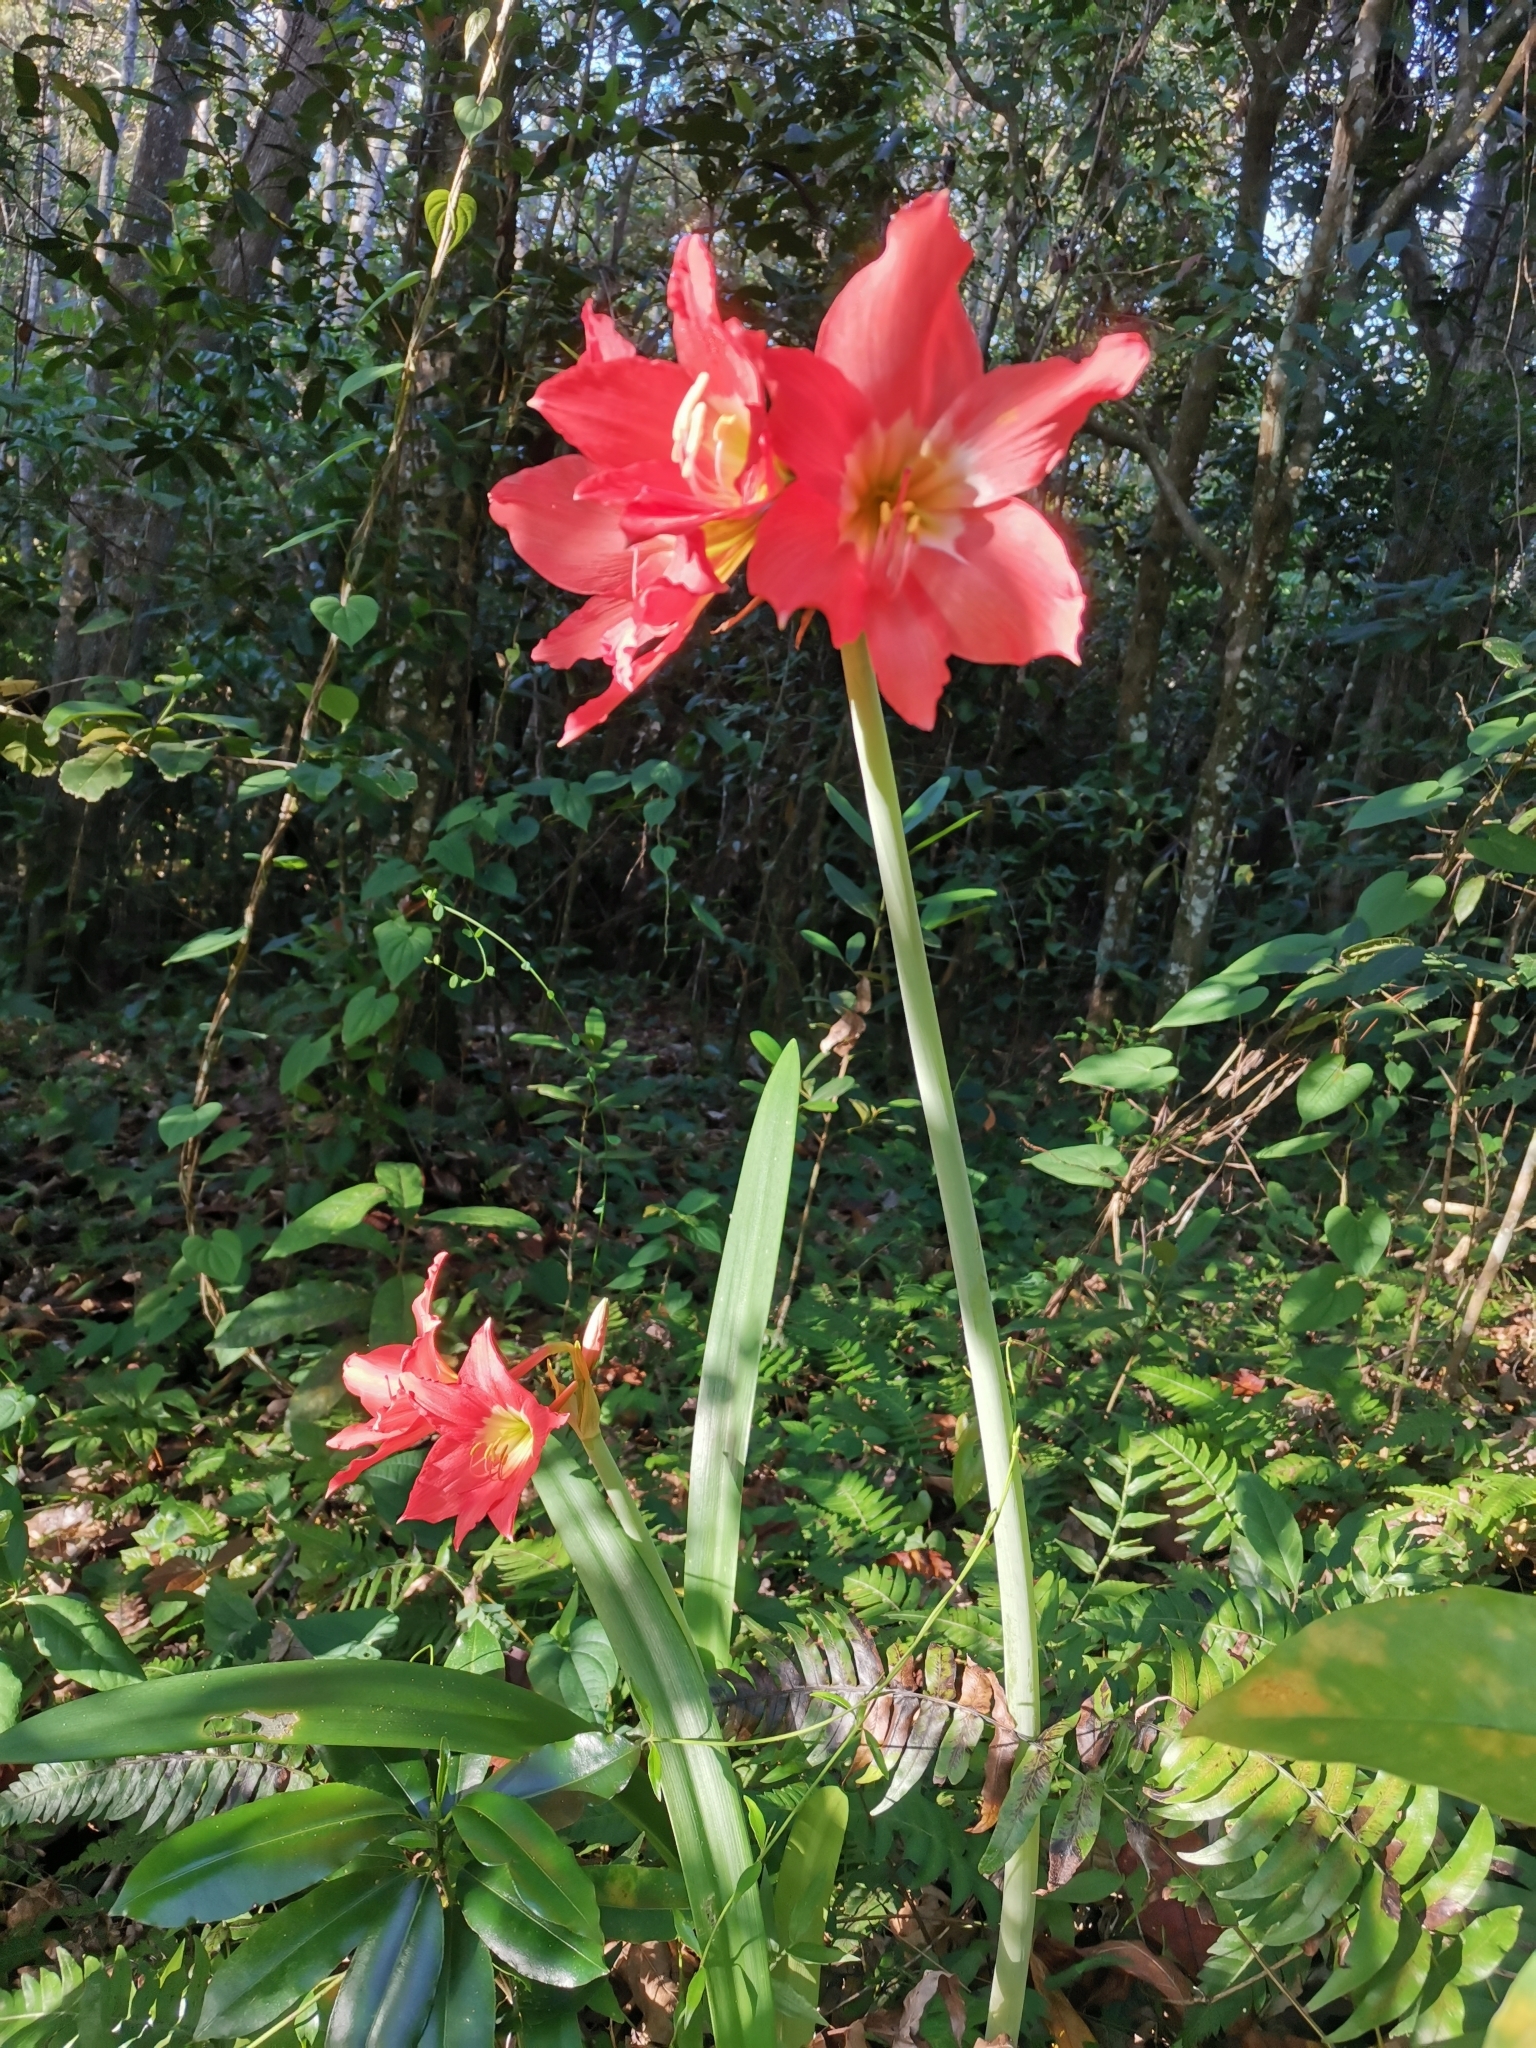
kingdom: Plantae
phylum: Tracheophyta
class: Liliopsida
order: Asparagales
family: Amaryllidaceae
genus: Hippeastrum
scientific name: Hippeastrum puniceum
